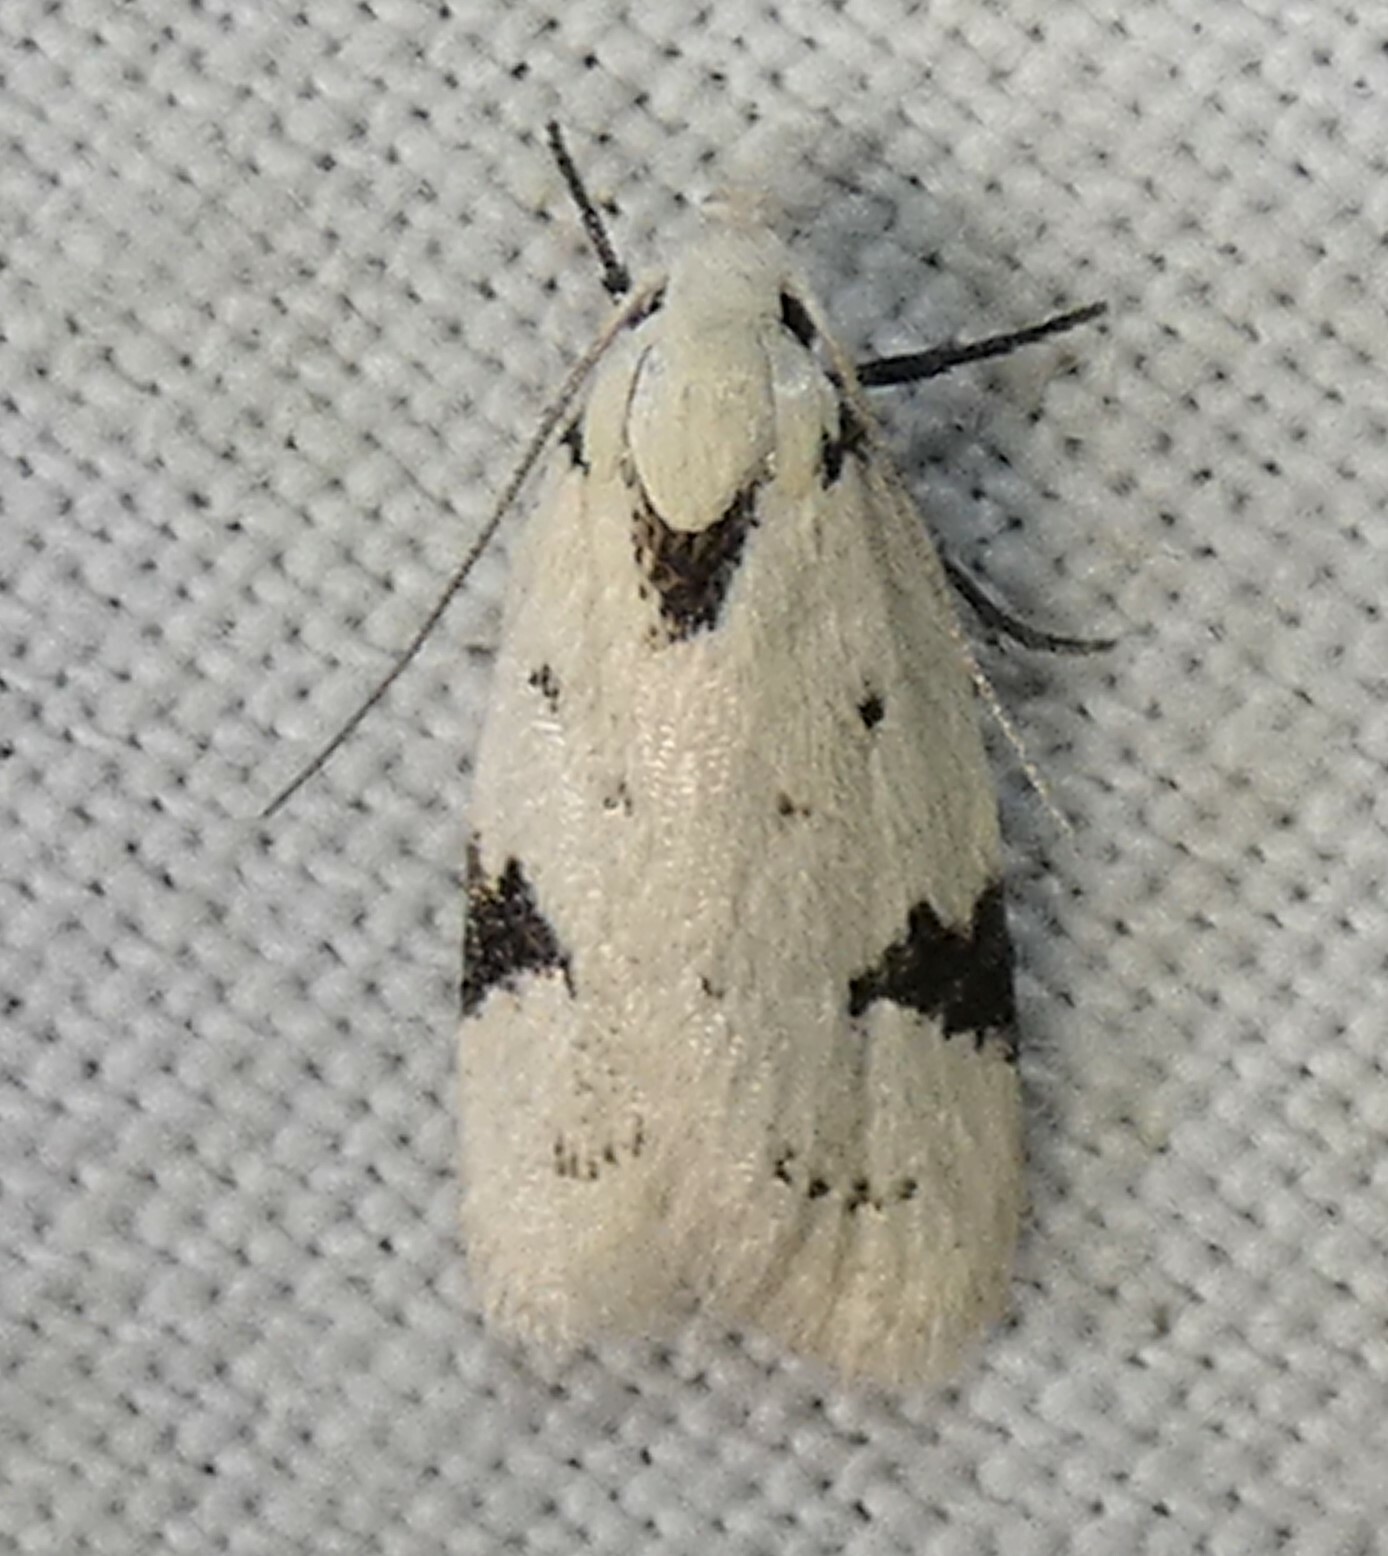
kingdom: Animalia
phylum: Arthropoda
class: Insecta
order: Lepidoptera
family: Oecophoridae
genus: Inga
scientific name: Inga sparsiciliella
